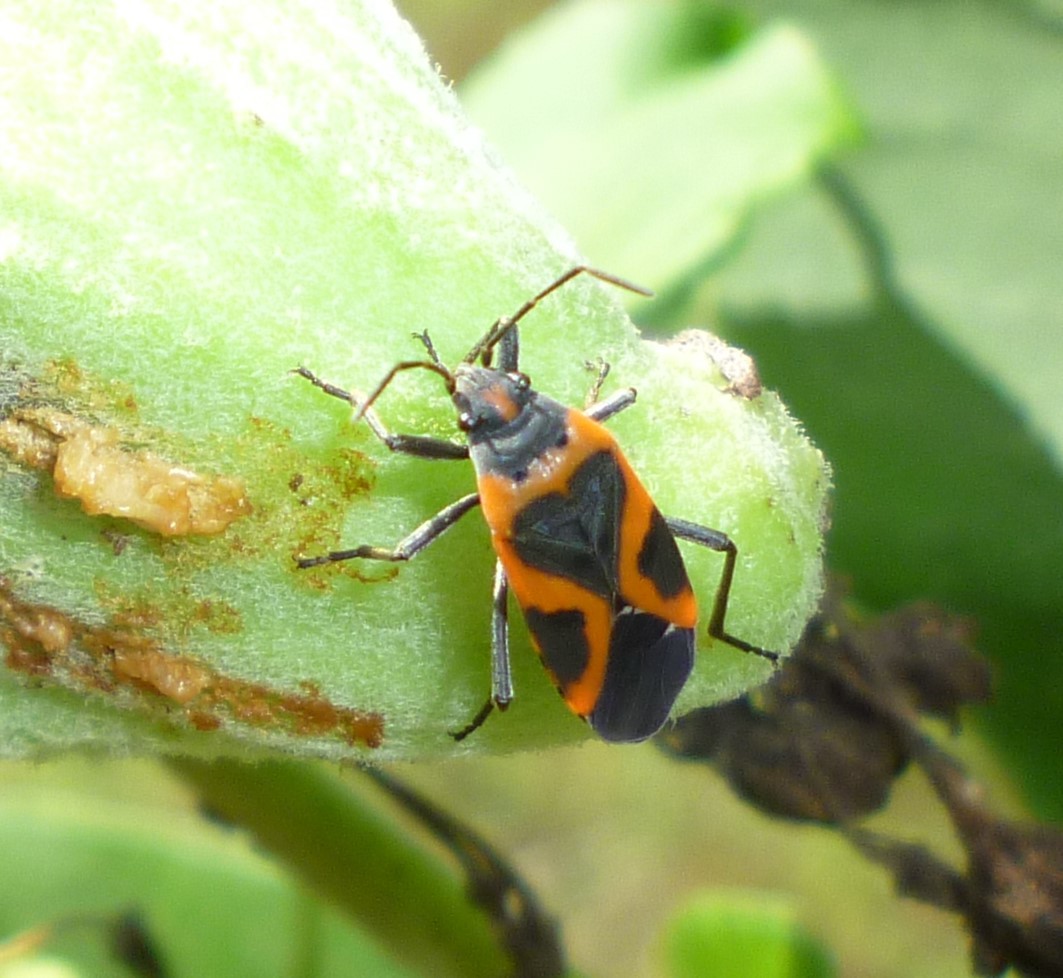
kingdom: Animalia
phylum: Arthropoda
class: Insecta
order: Hemiptera
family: Lygaeidae
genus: Lygaeus
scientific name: Lygaeus kalmii
